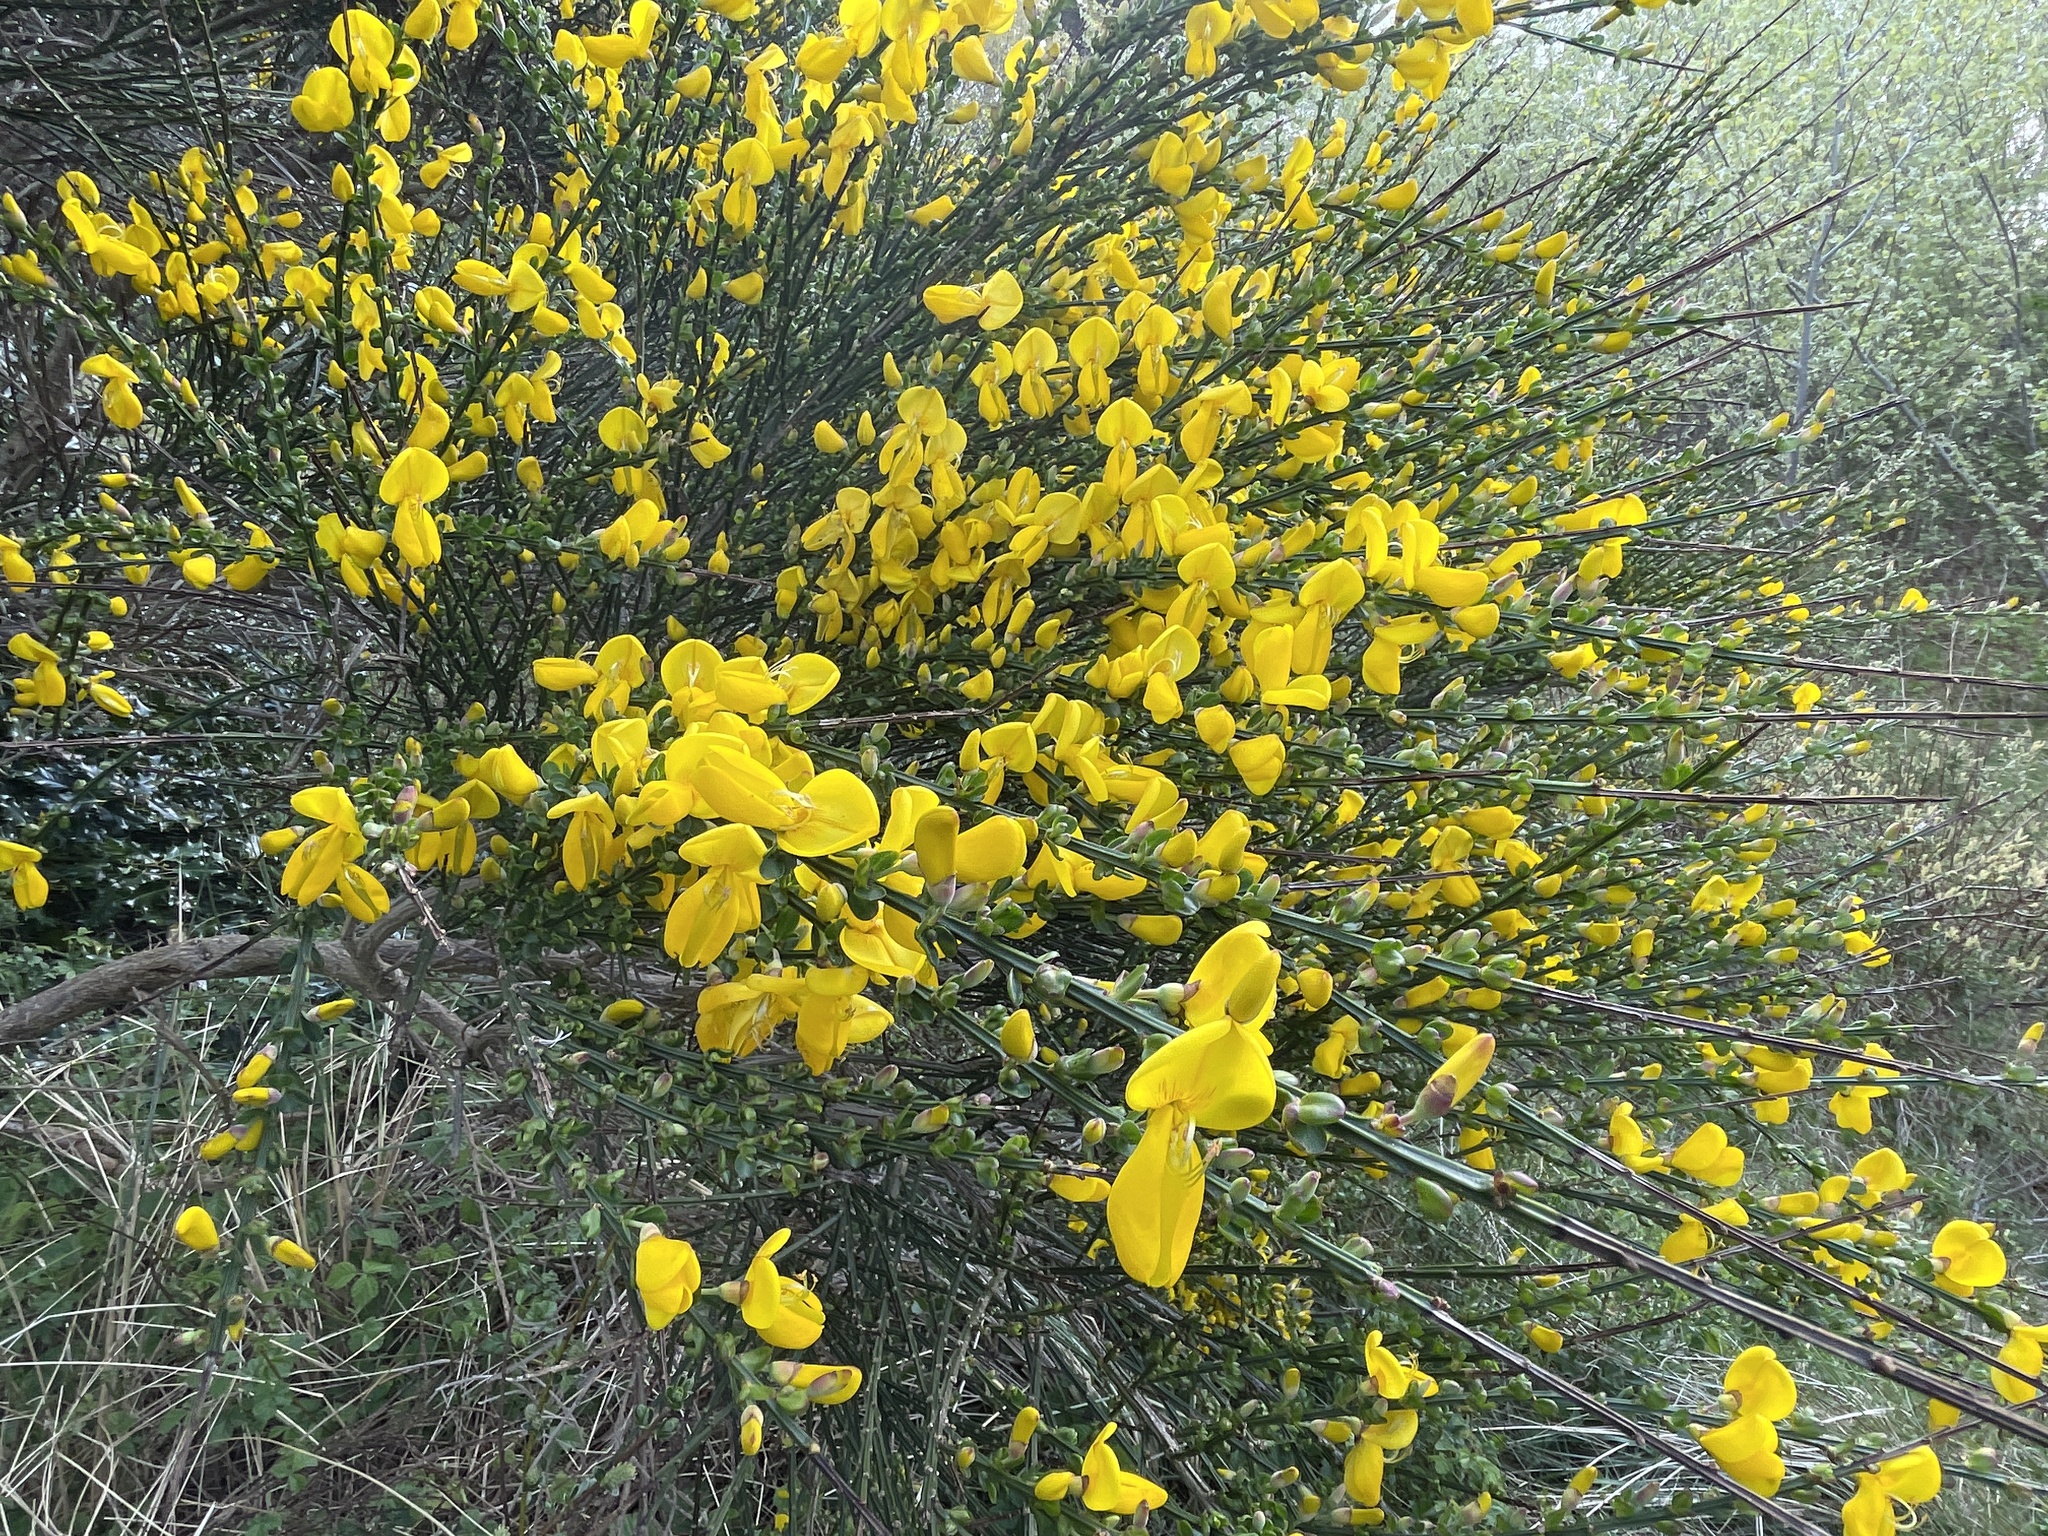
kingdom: Plantae
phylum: Tracheophyta
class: Magnoliopsida
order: Fabales
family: Fabaceae
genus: Cytisus
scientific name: Cytisus scoparius
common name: Scotch broom
